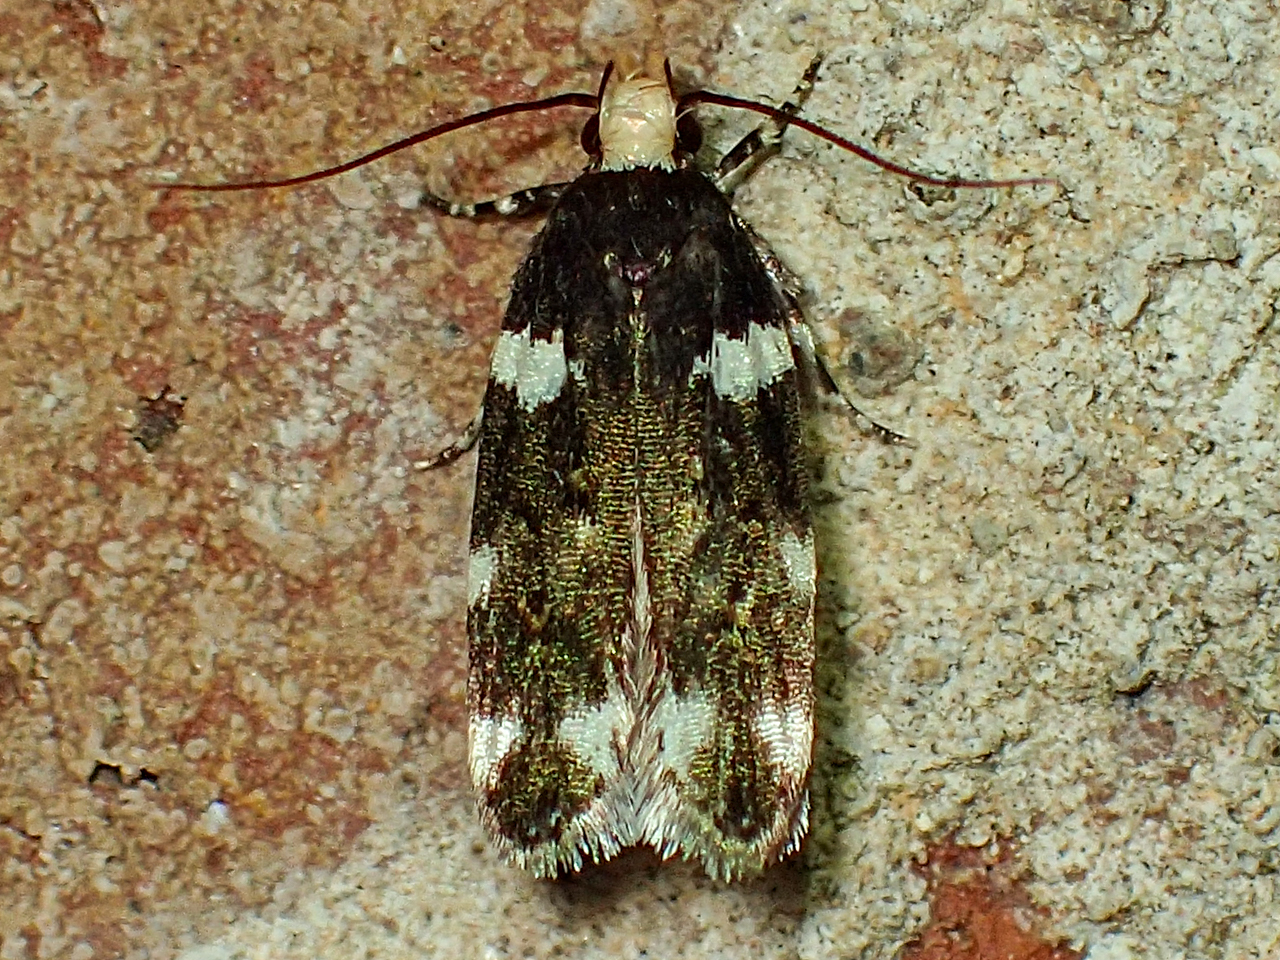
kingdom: Animalia
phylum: Arthropoda
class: Insecta
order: Lepidoptera
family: Gelechiidae
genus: Fascista
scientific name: Fascista cercerisella
